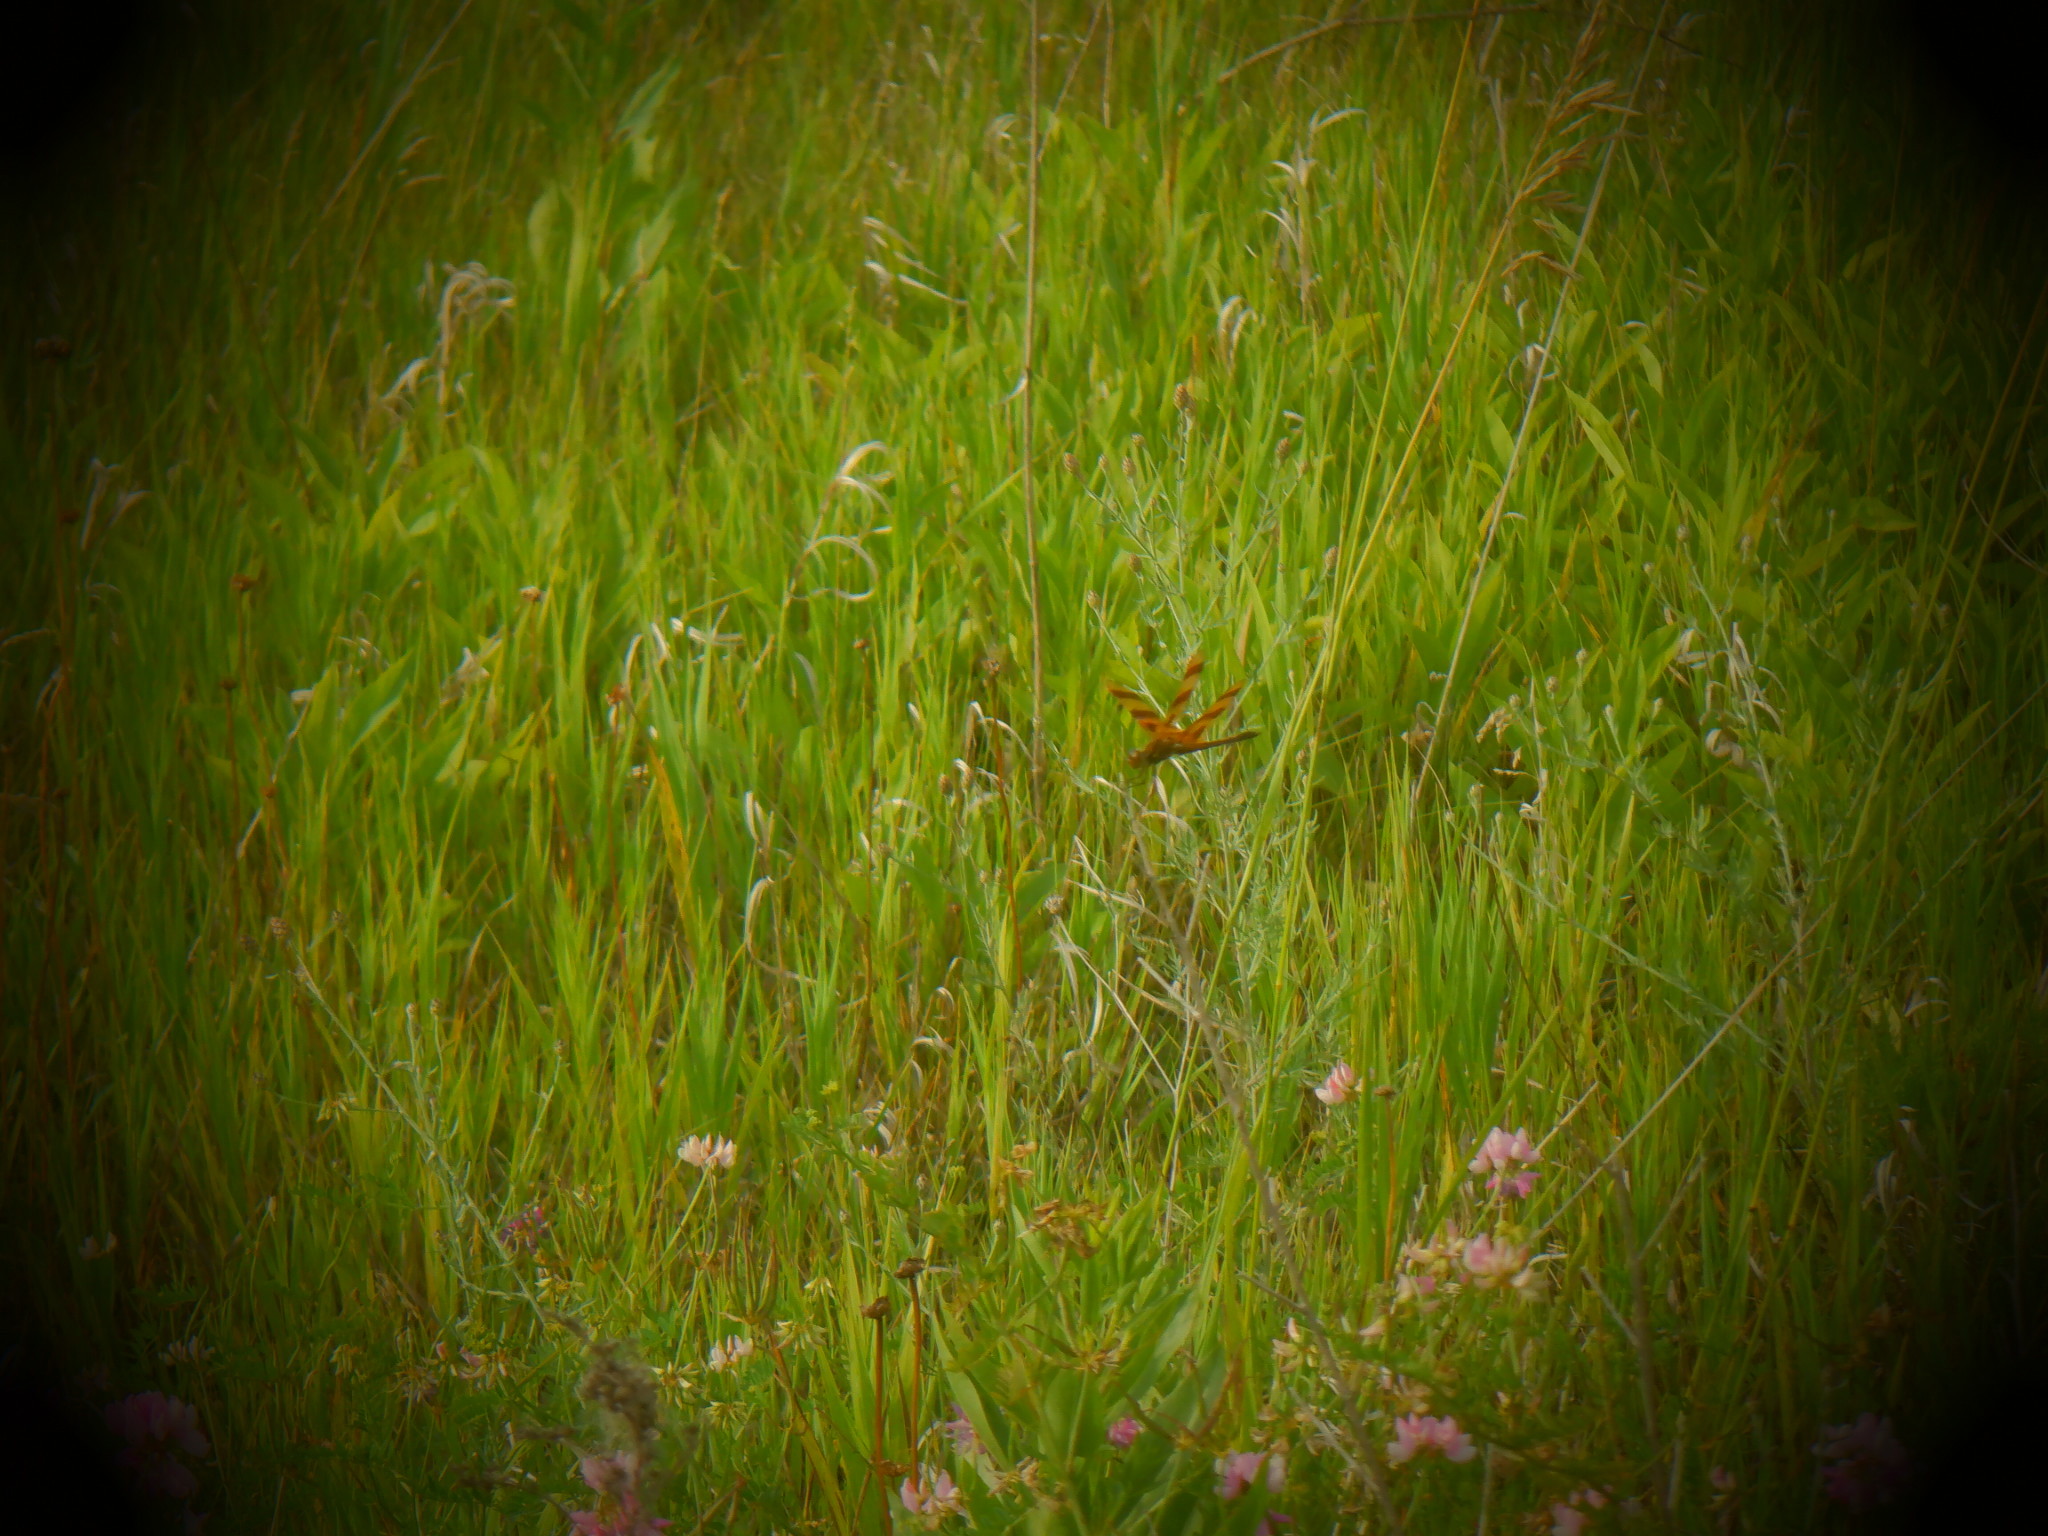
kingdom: Animalia
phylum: Arthropoda
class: Insecta
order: Odonata
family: Libellulidae
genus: Celithemis
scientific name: Celithemis eponina
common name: Halloween pennant
